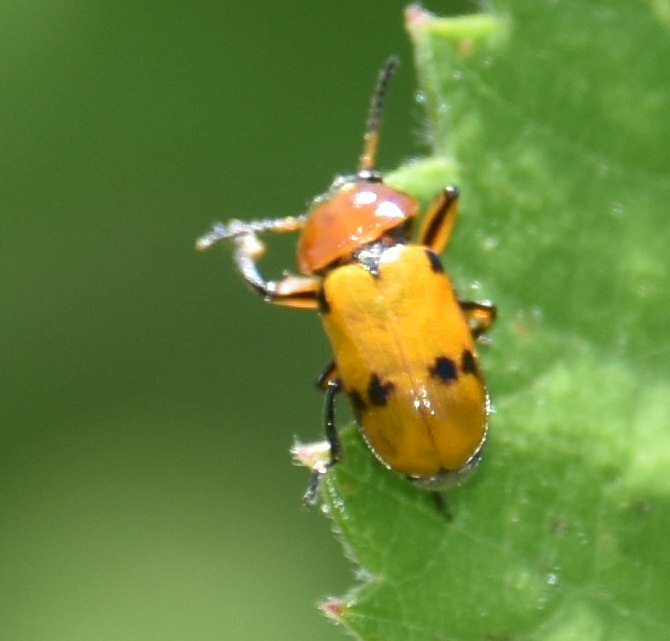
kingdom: Animalia
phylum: Arthropoda
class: Insecta
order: Coleoptera
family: Chrysomelidae
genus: Macrolenes
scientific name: Macrolenes dentipes
